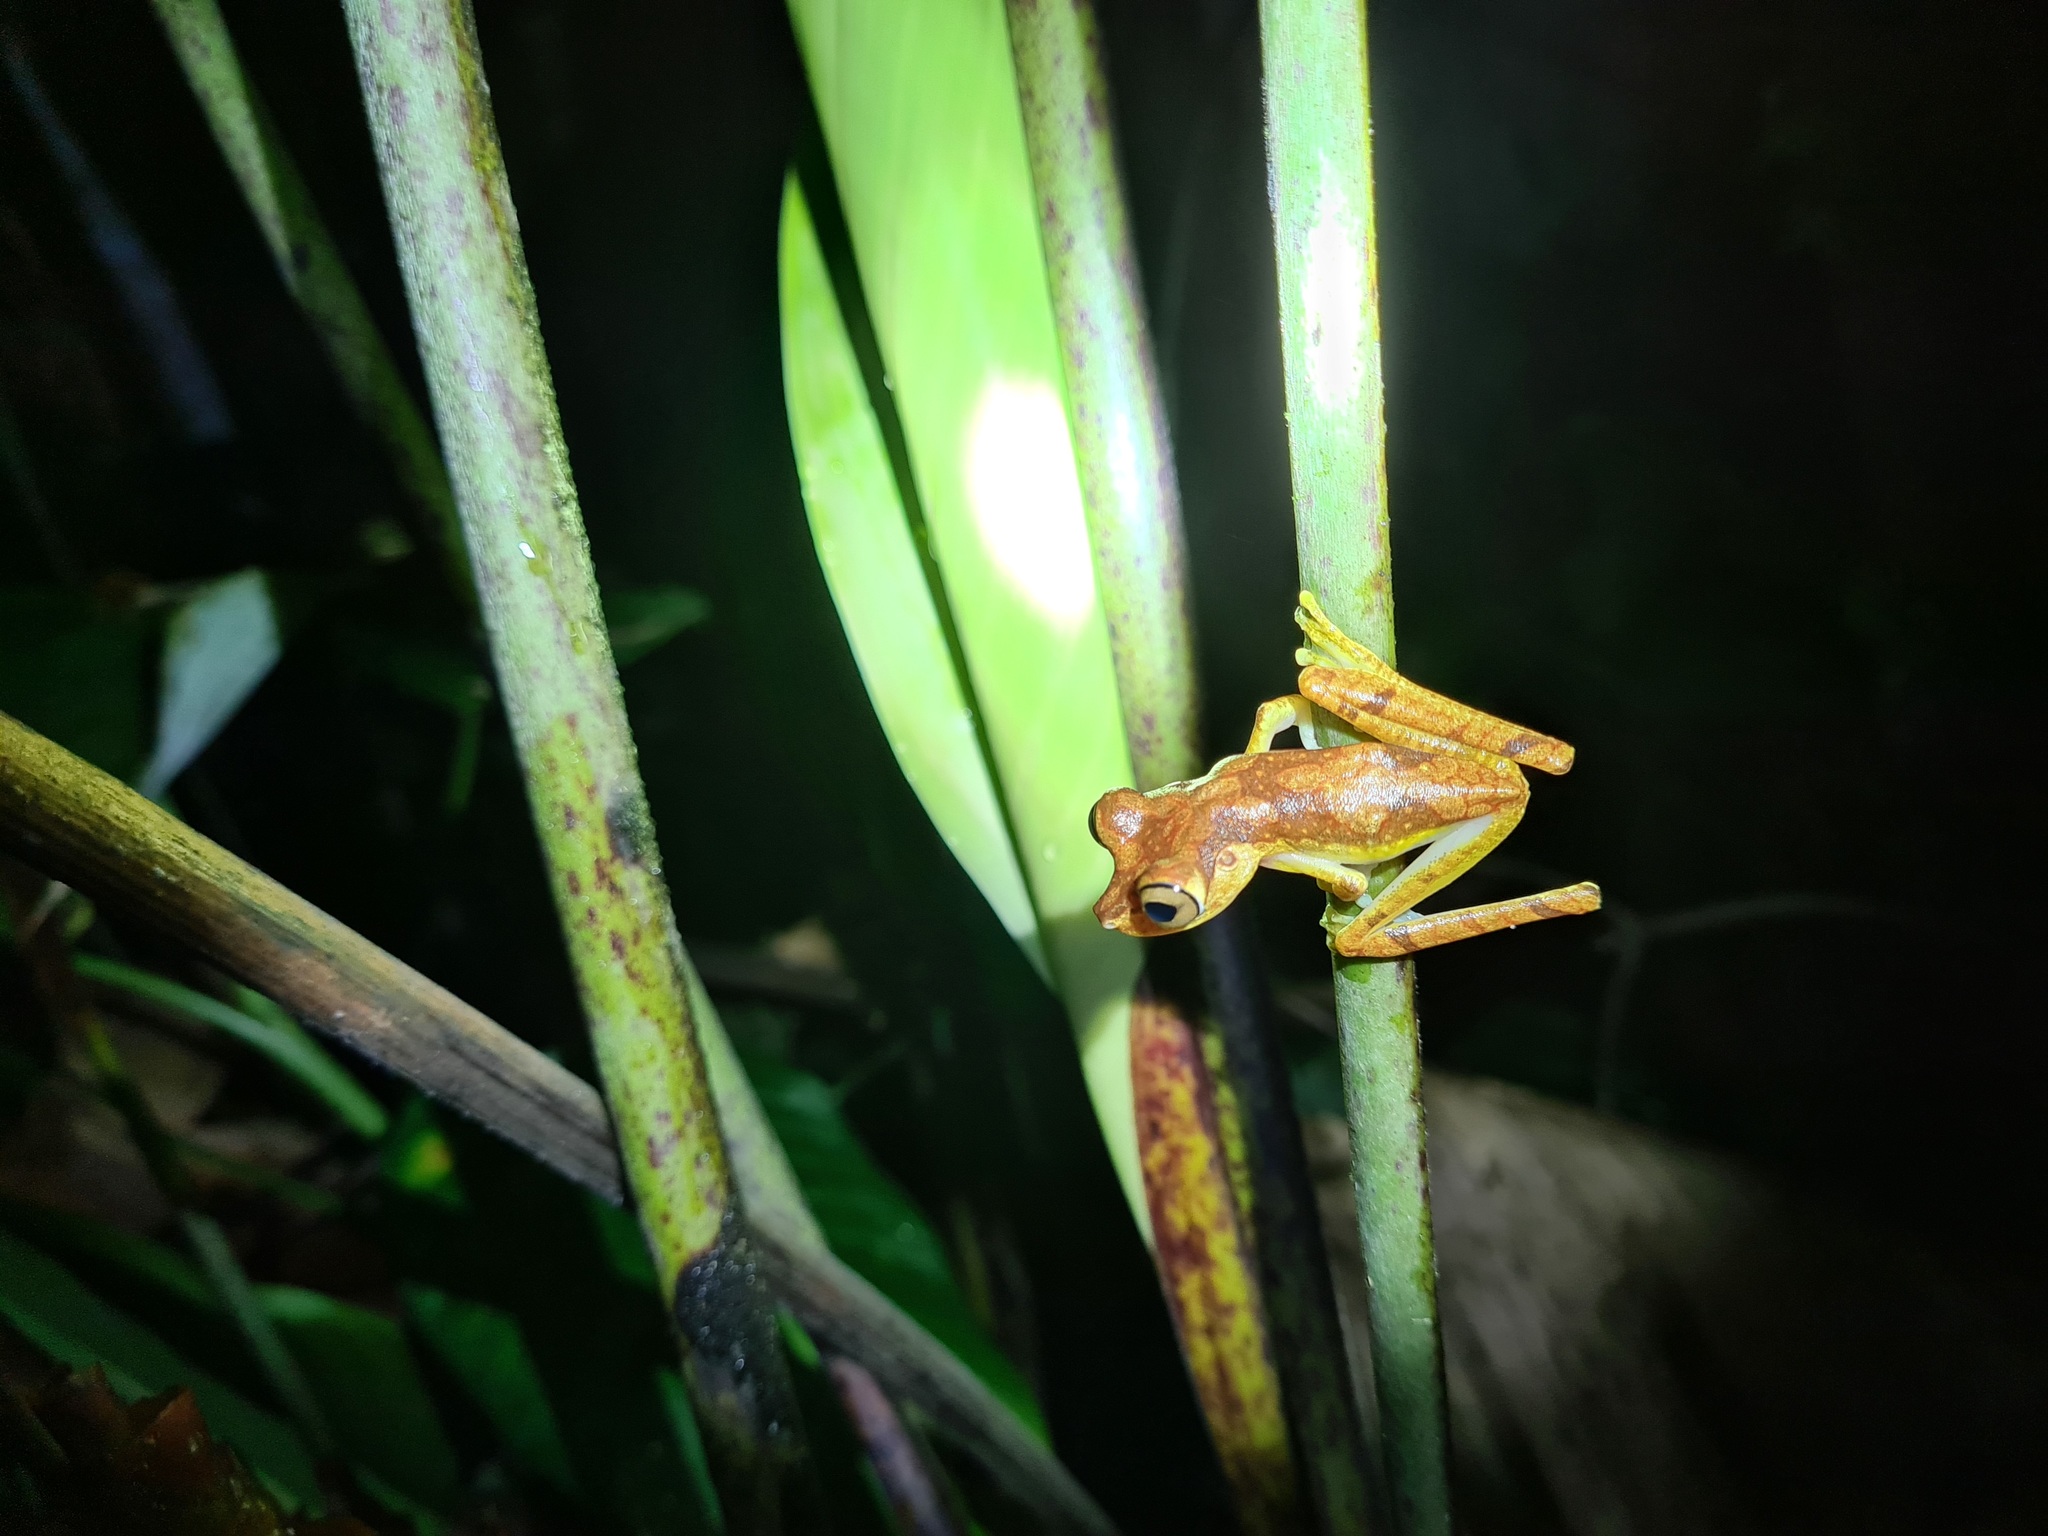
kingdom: Animalia
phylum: Chordata
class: Amphibia
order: Anura
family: Hylidae
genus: Boana
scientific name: Boana picturata
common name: Imbabura treefrog
